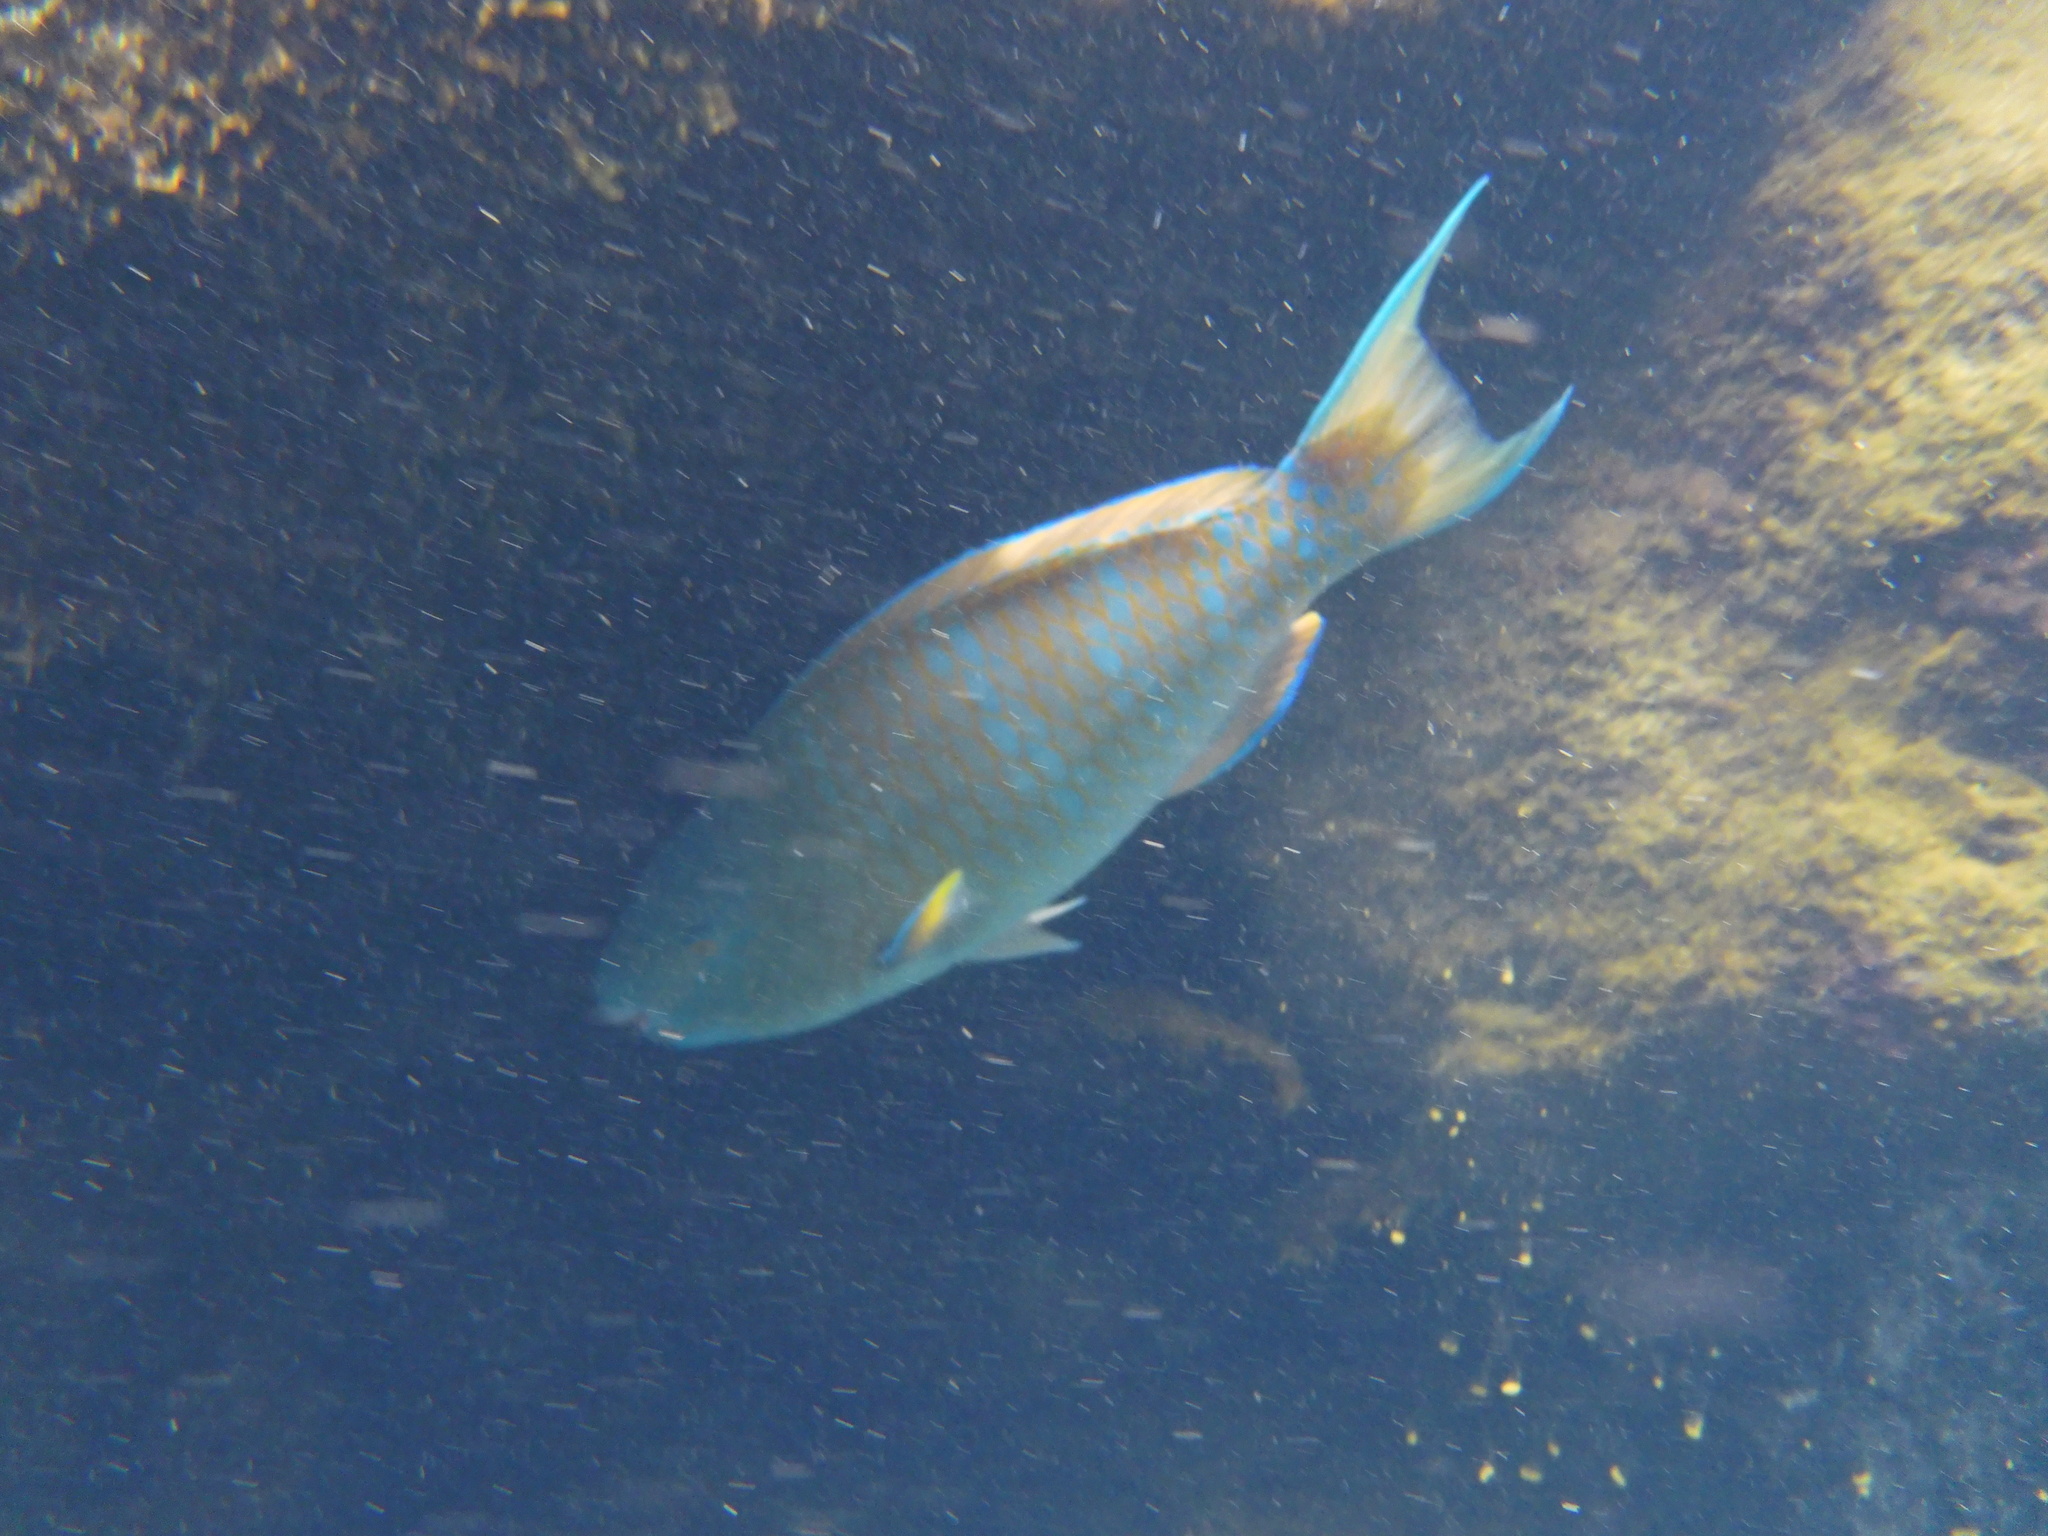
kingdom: Animalia
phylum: Chordata
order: Perciformes
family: Scaridae
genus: Scarus
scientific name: Scarus ghobban
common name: Blue-barred parrotfish
